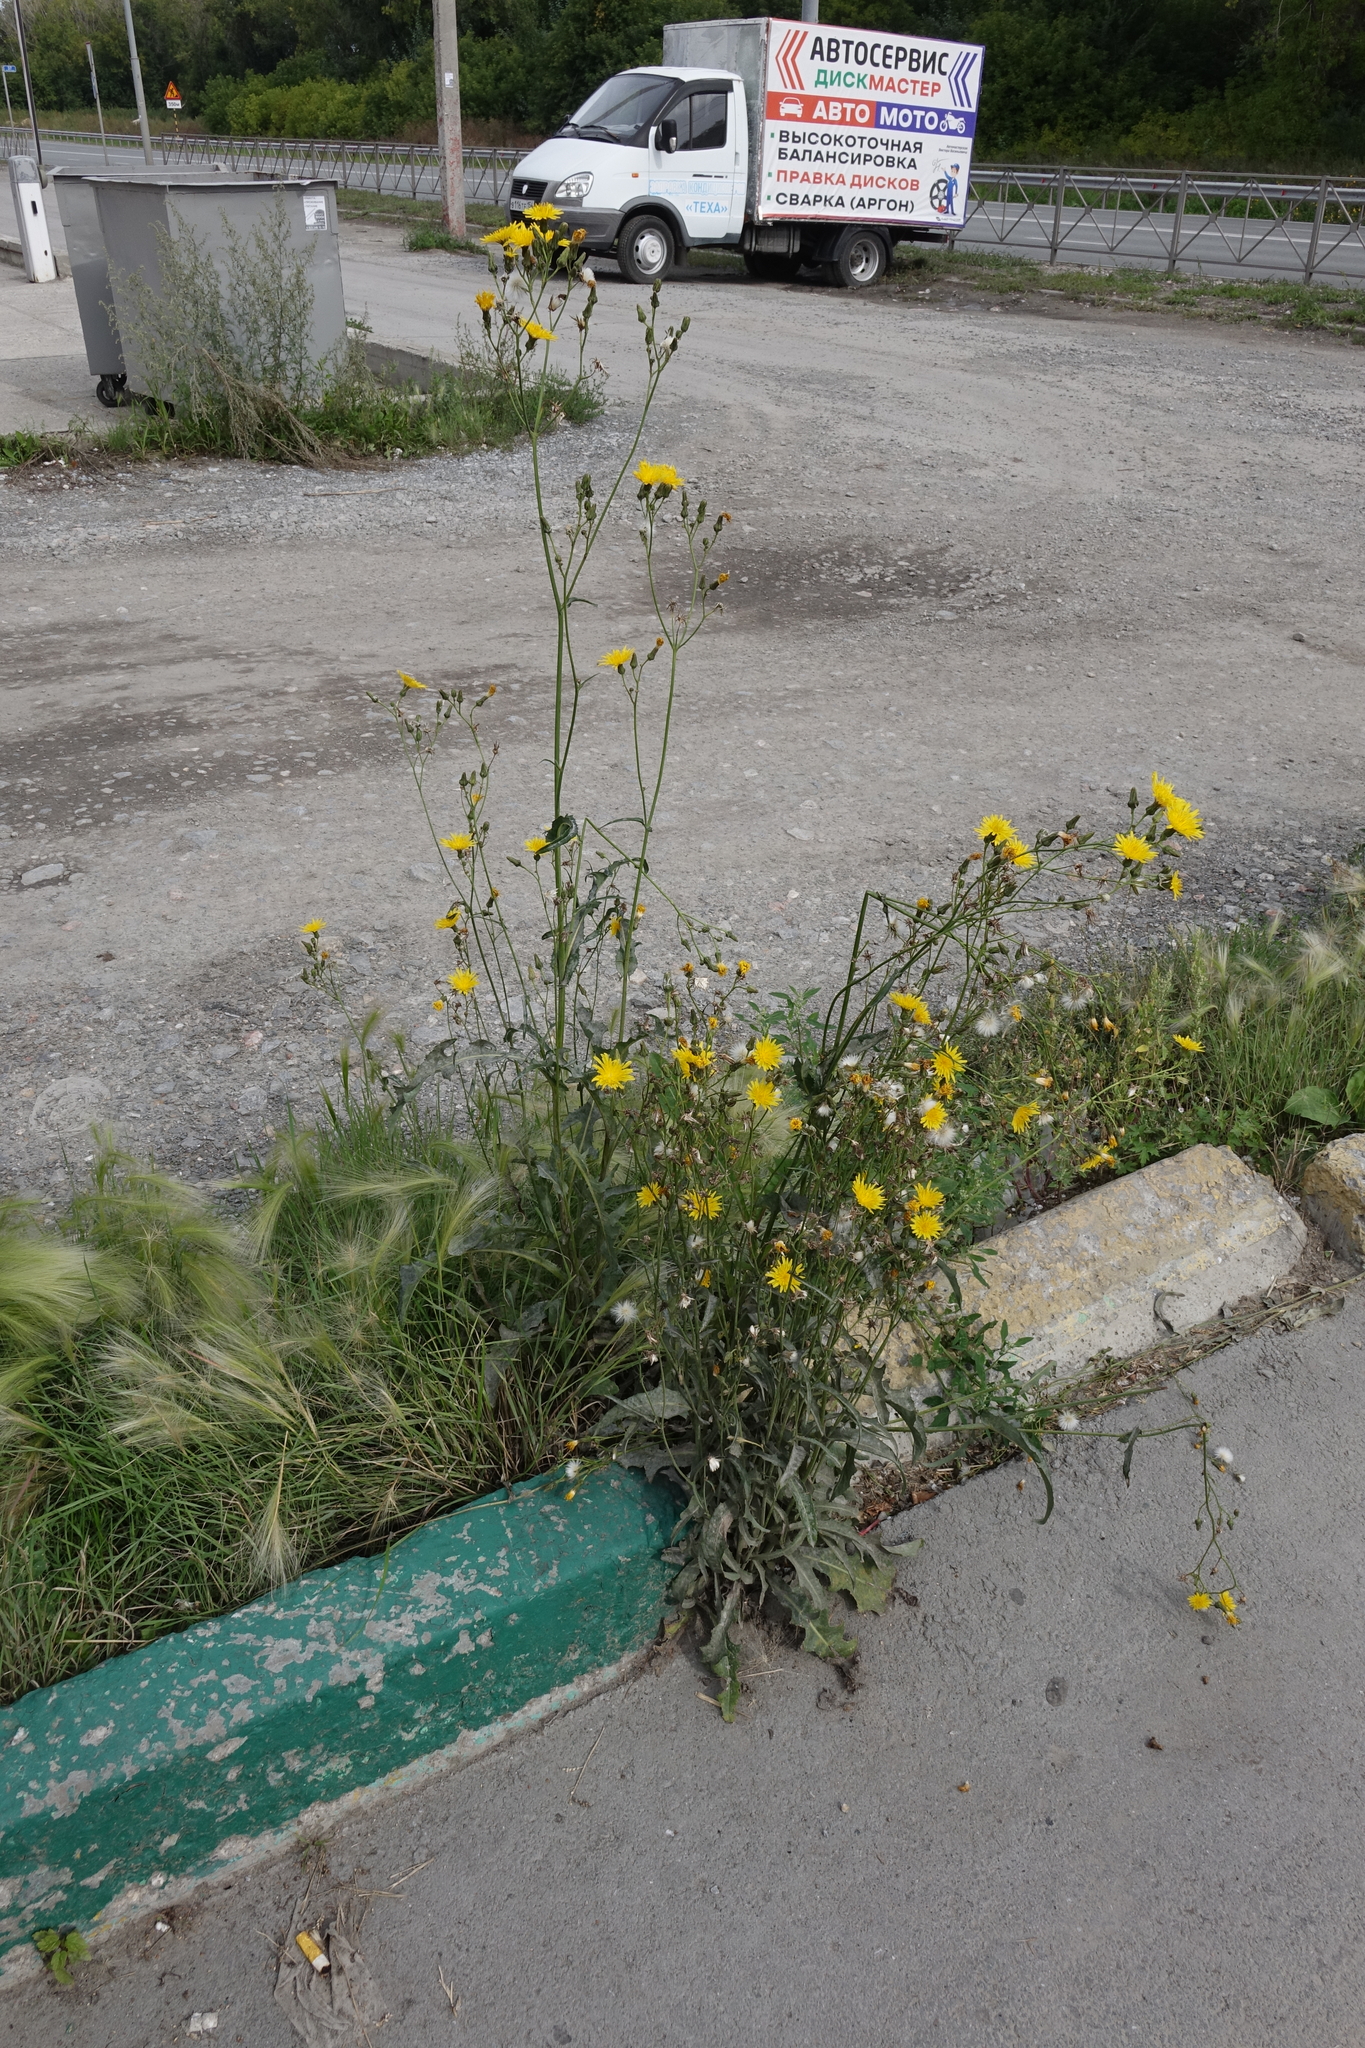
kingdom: Plantae
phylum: Tracheophyta
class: Magnoliopsida
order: Asterales
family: Asteraceae
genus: Sonchus
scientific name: Sonchus arvensis
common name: Perennial sow-thistle
